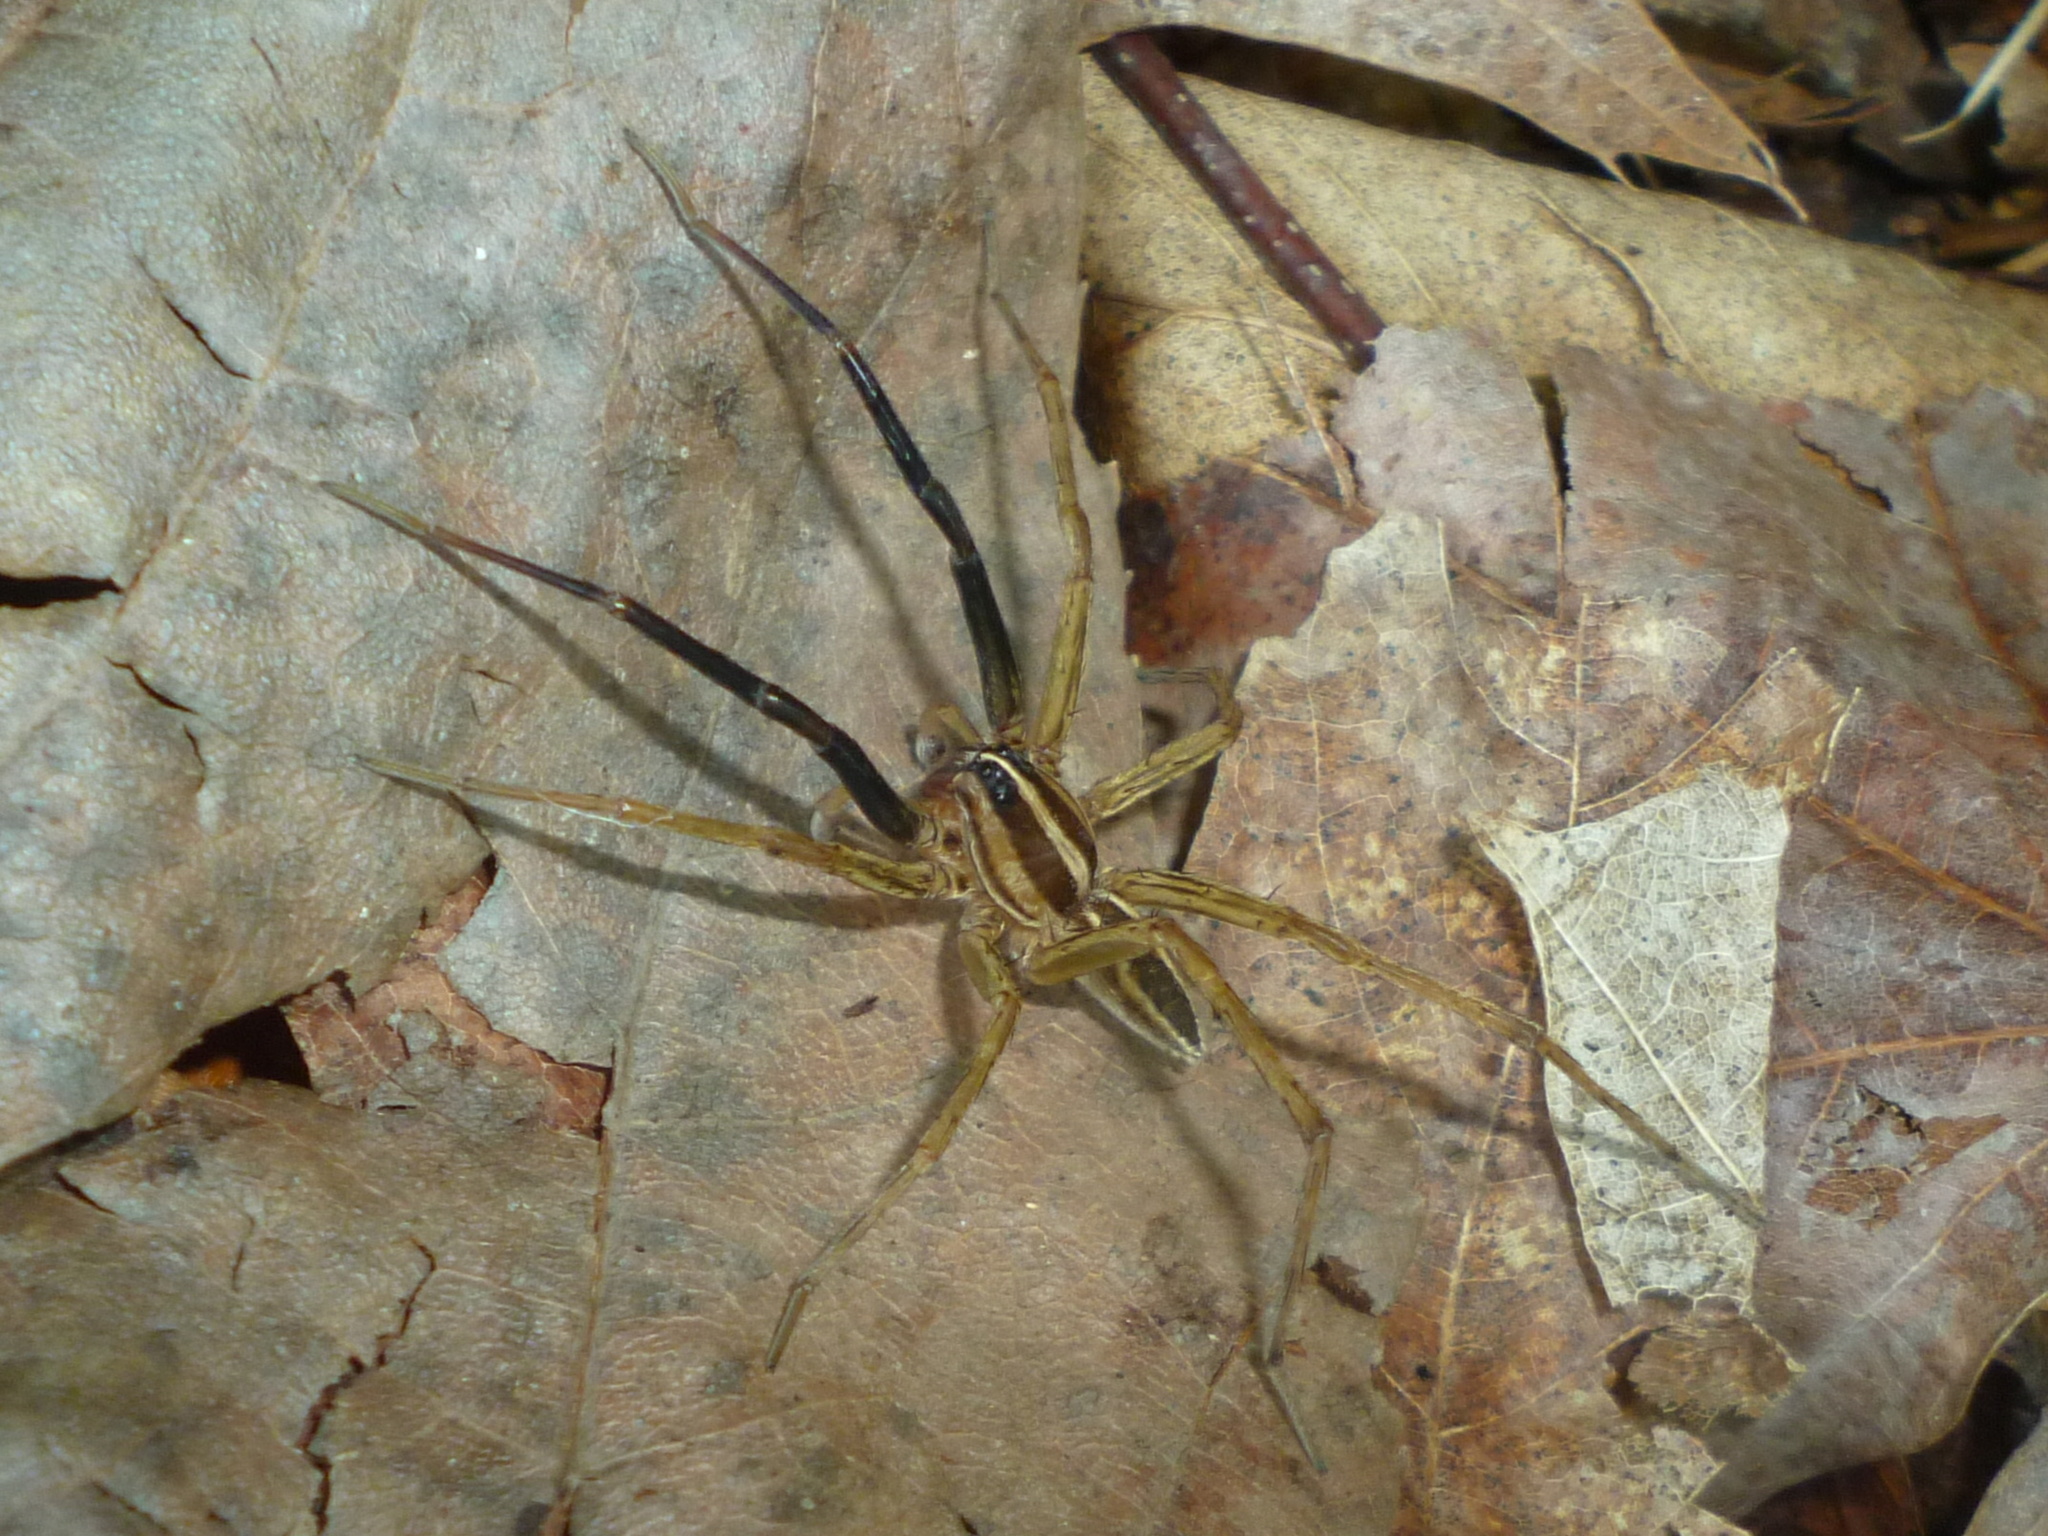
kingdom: Animalia
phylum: Arthropoda
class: Arachnida
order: Araneae
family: Lycosidae
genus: Rabidosa
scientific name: Rabidosa rabida
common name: Rabid wolf spider
